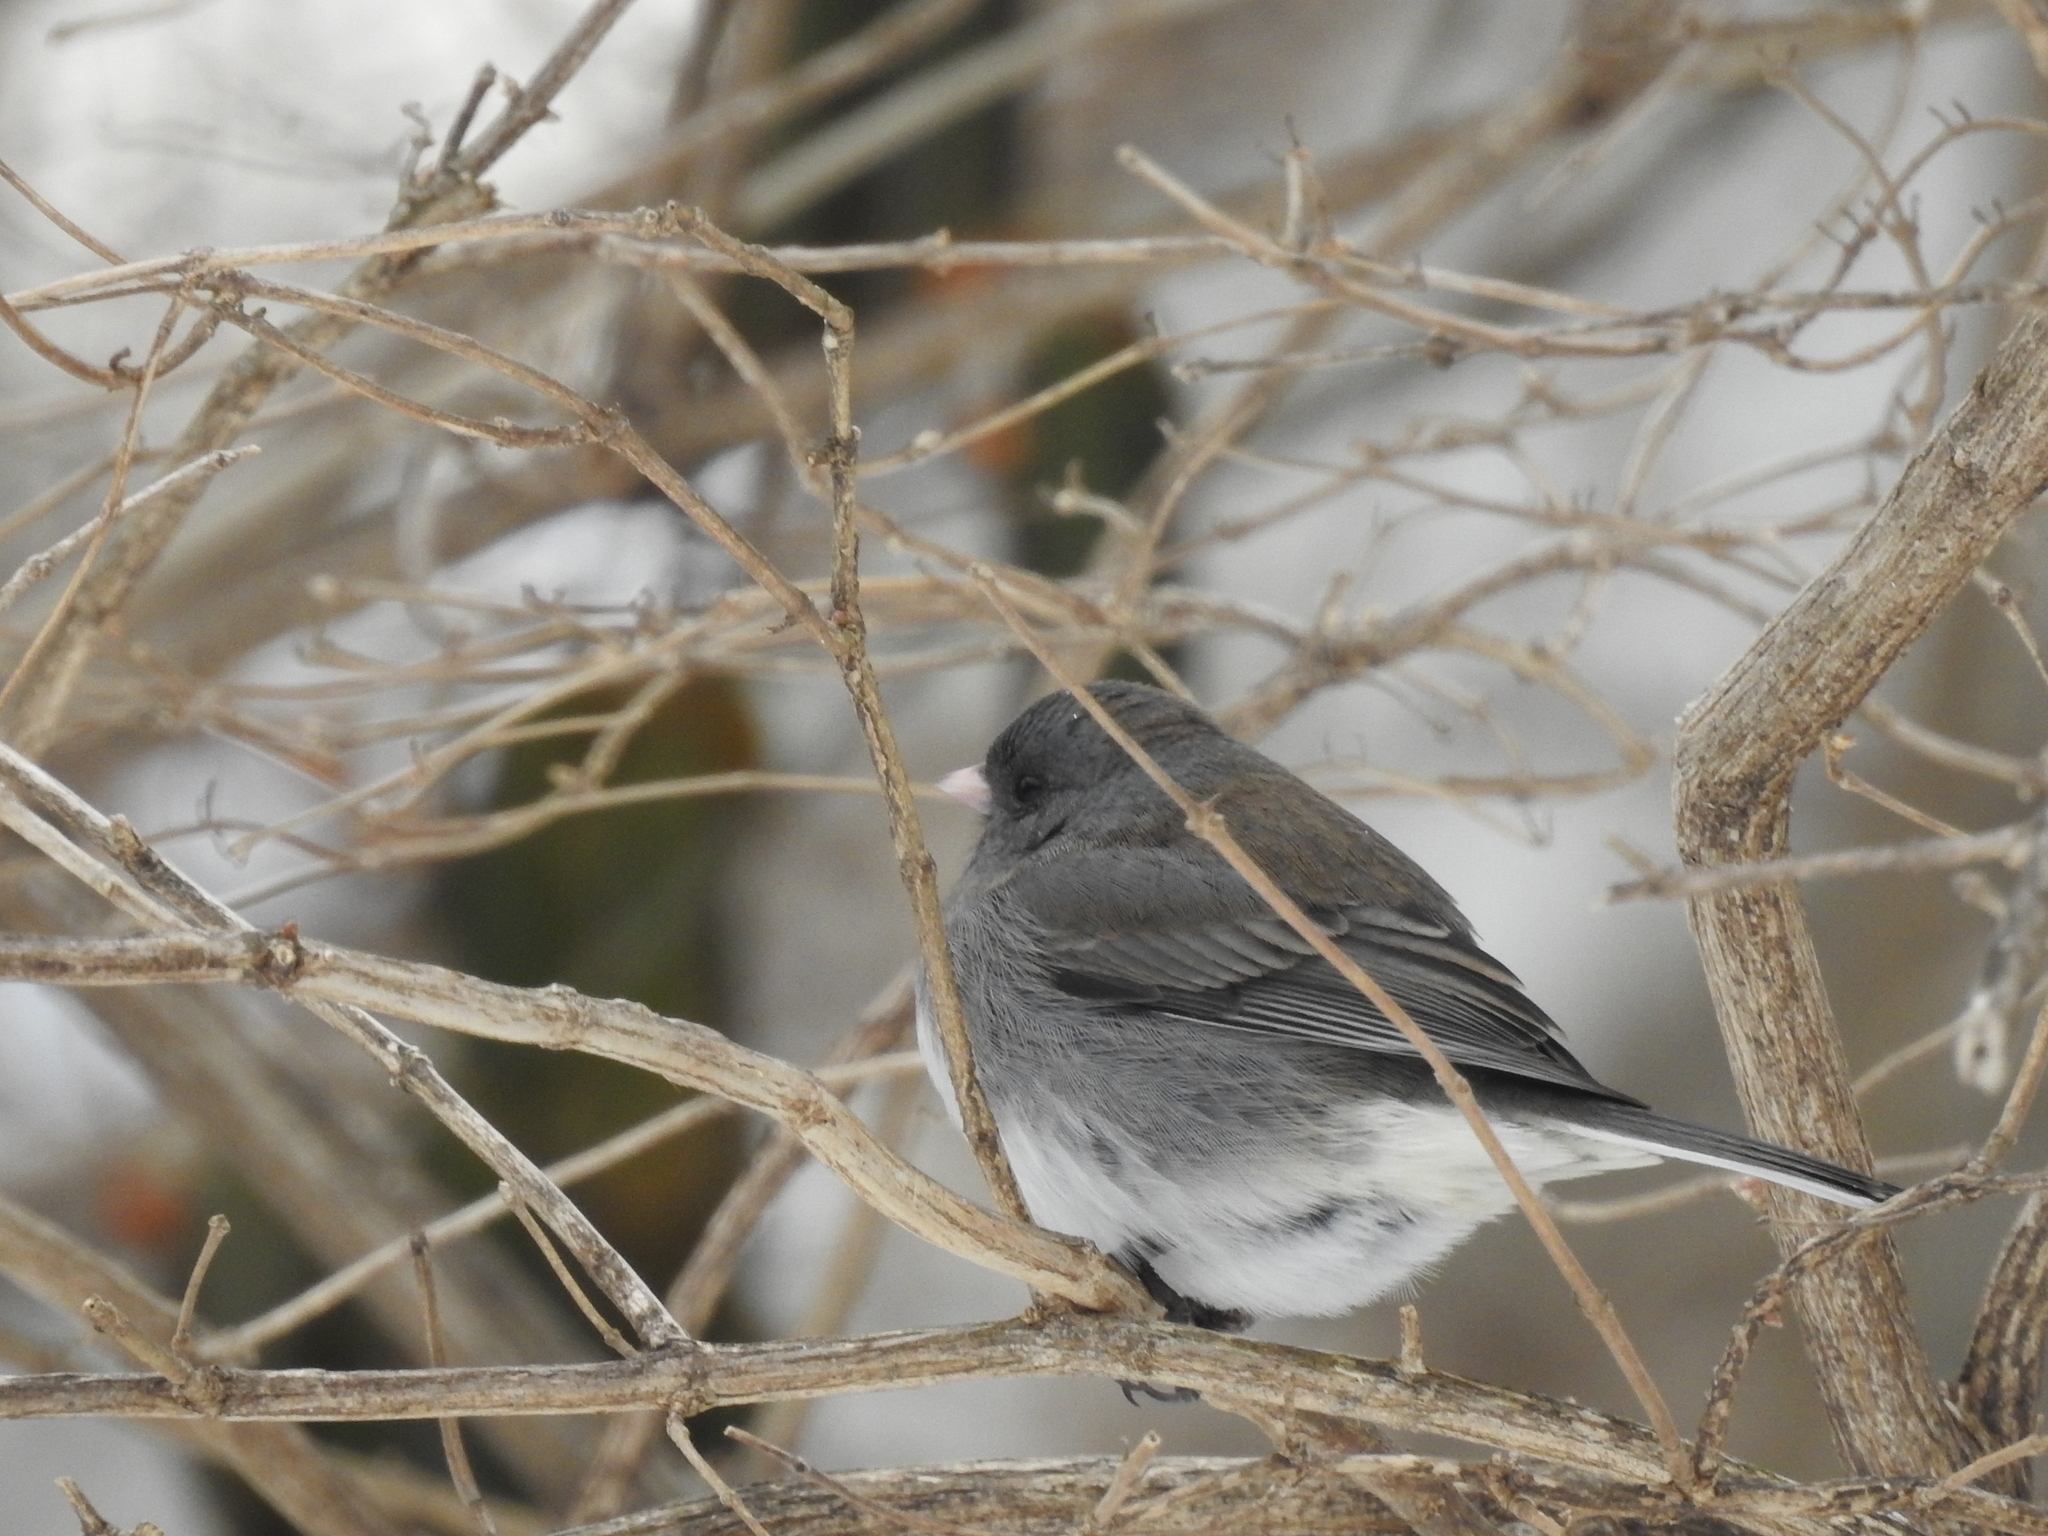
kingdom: Animalia
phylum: Chordata
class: Aves
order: Passeriformes
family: Passerellidae
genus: Junco
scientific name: Junco hyemalis
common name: Dark-eyed junco
